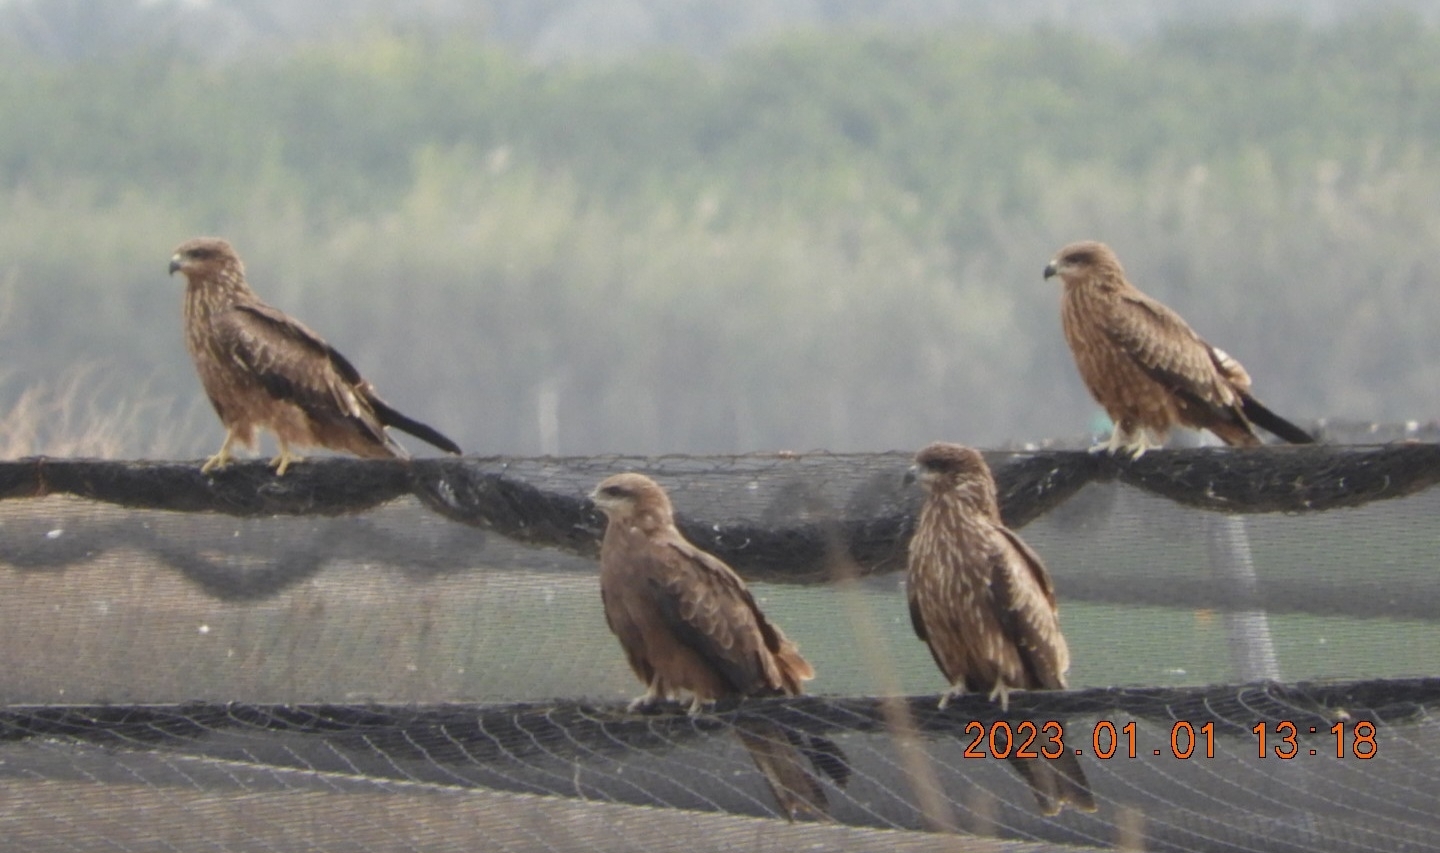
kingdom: Animalia
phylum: Chordata
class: Aves
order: Accipitriformes
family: Accipitridae
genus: Milvus
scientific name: Milvus migrans
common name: Black kite
